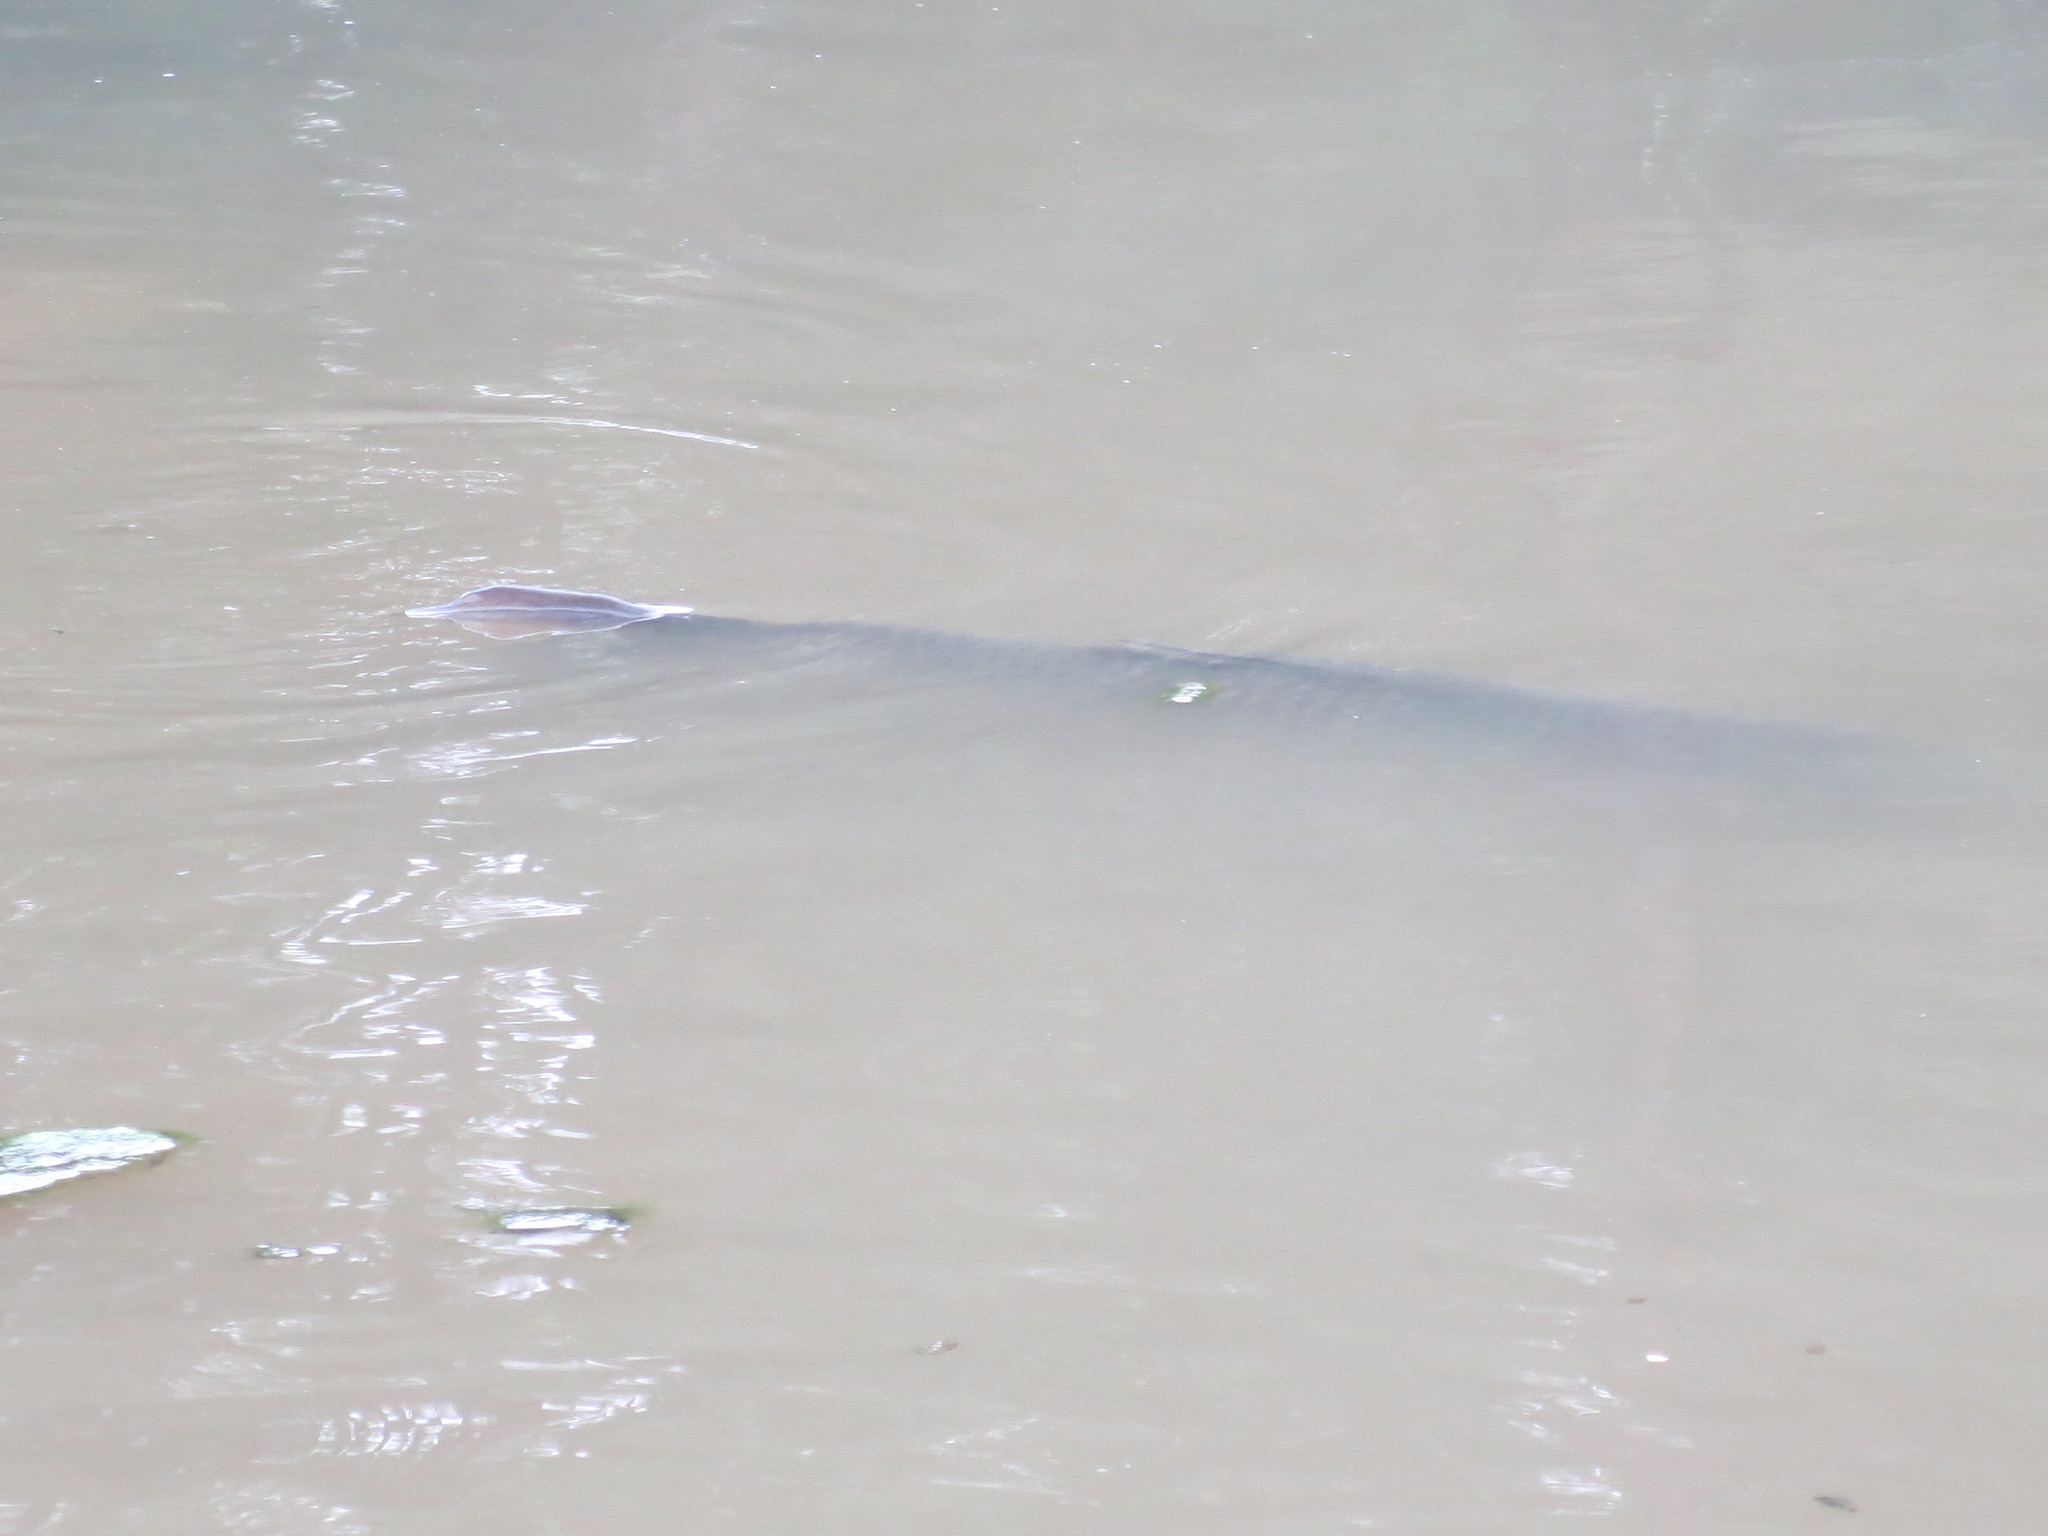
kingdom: Animalia
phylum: Chordata
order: Cypriniformes
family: Cyprinidae
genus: Ctenopharyngodon
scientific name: Ctenopharyngodon idella
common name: Grass carp
